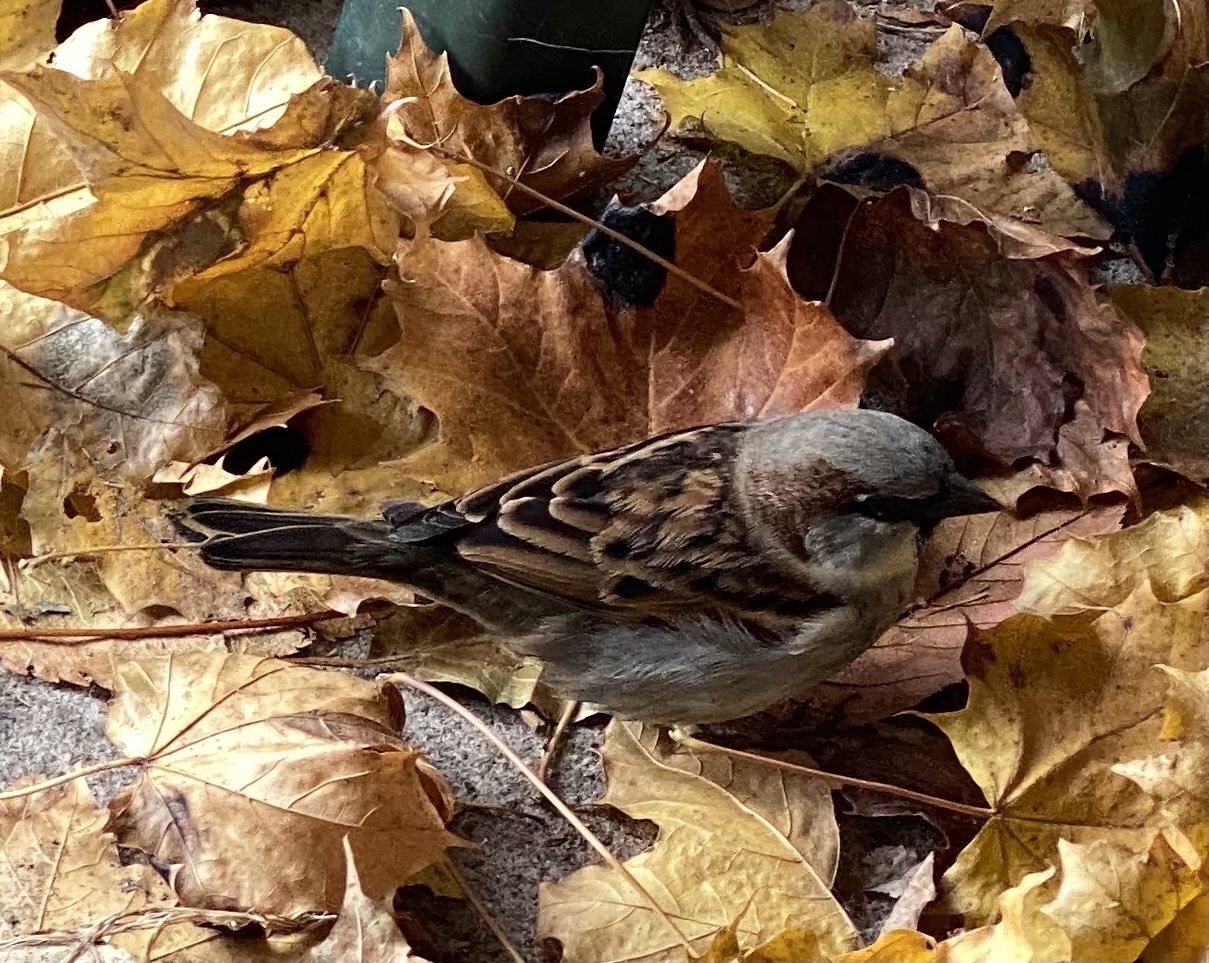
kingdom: Animalia
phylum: Chordata
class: Aves
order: Passeriformes
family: Passeridae
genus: Passer
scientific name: Passer domesticus
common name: House sparrow
